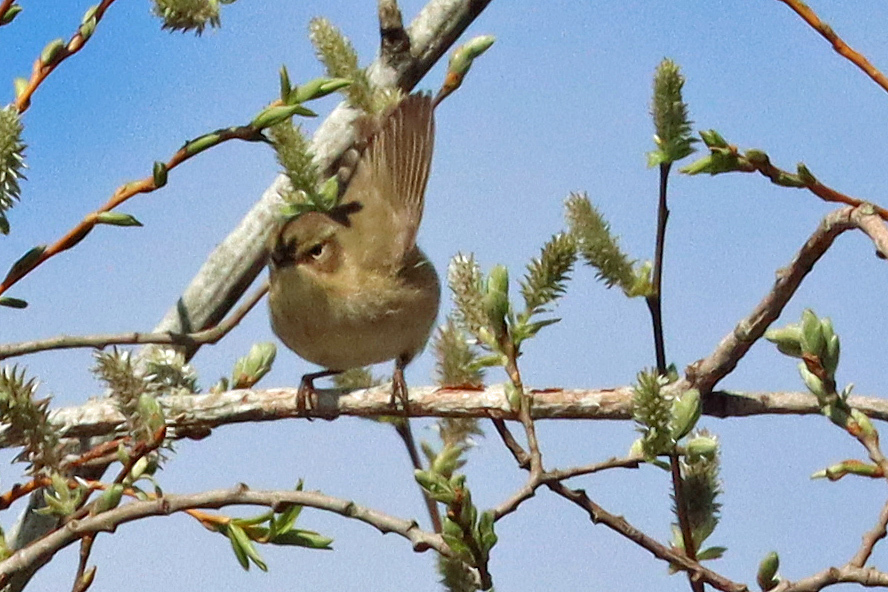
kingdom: Animalia
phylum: Chordata
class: Aves
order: Passeriformes
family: Cettiidae
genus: Cettia
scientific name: Cettia cetti
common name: Cetti's warbler
